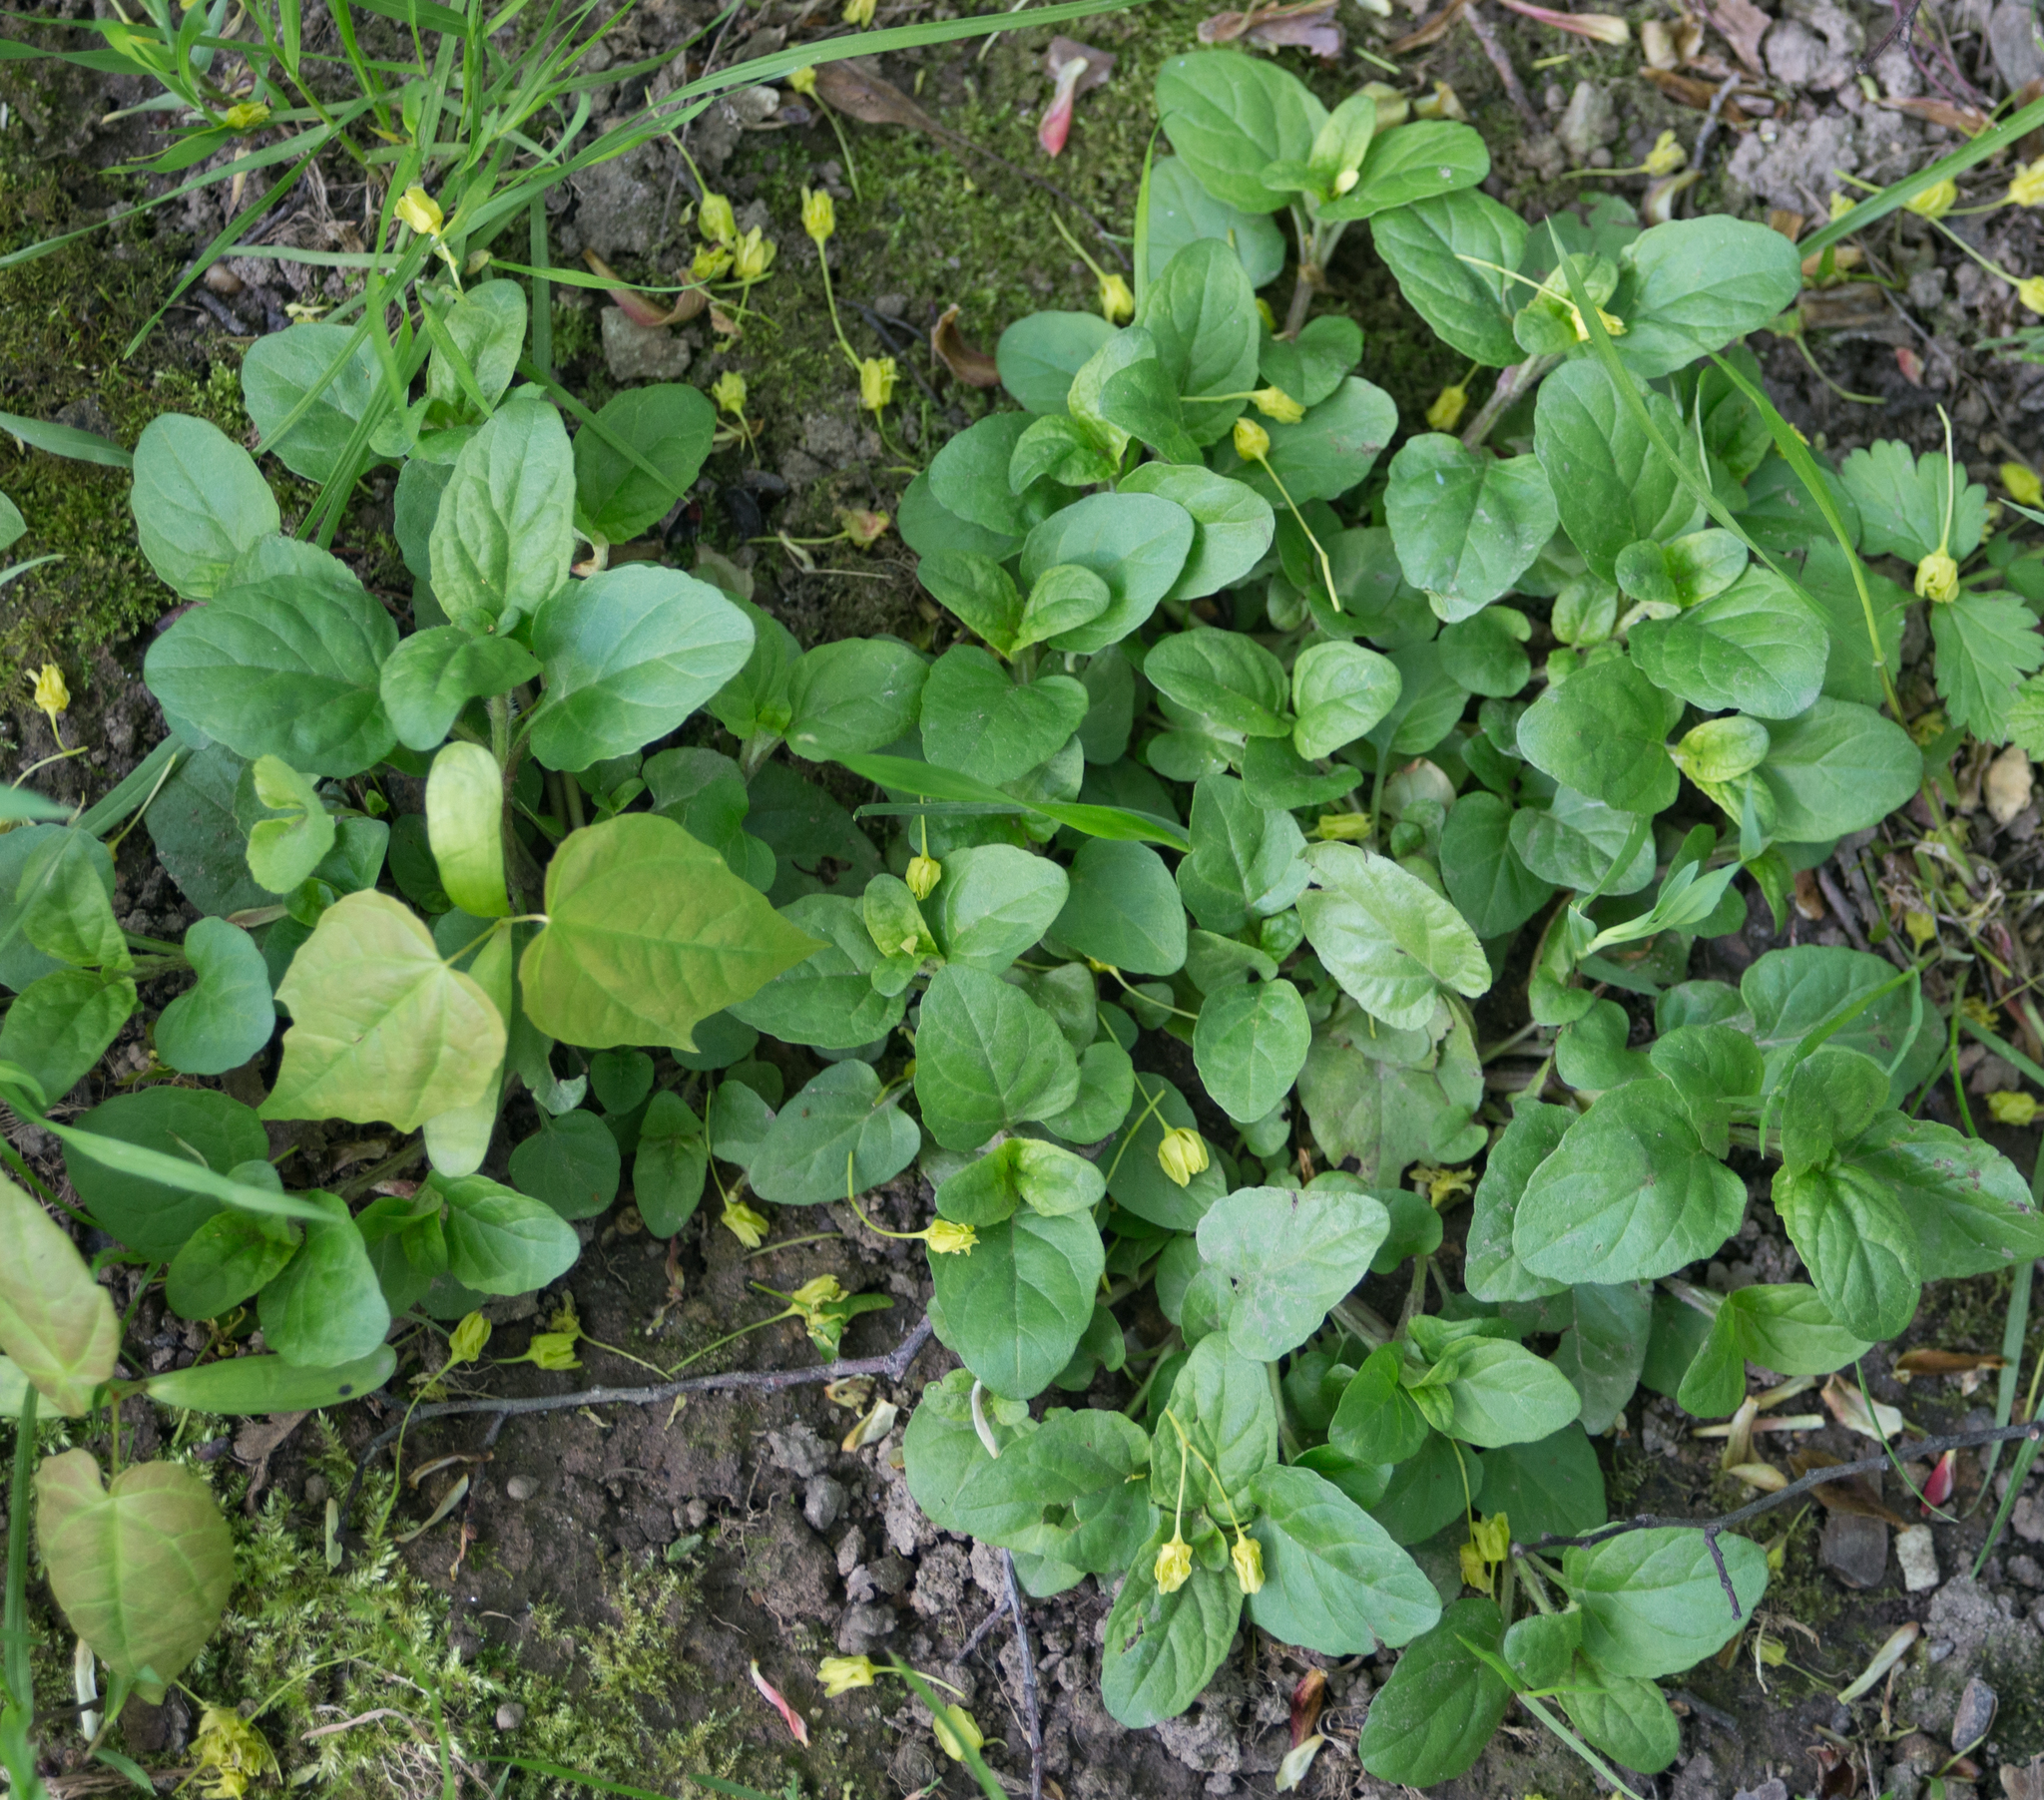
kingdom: Plantae
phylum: Tracheophyta
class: Magnoliopsida
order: Lamiales
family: Lamiaceae
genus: Prunella
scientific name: Prunella vulgaris
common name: Heal-all
